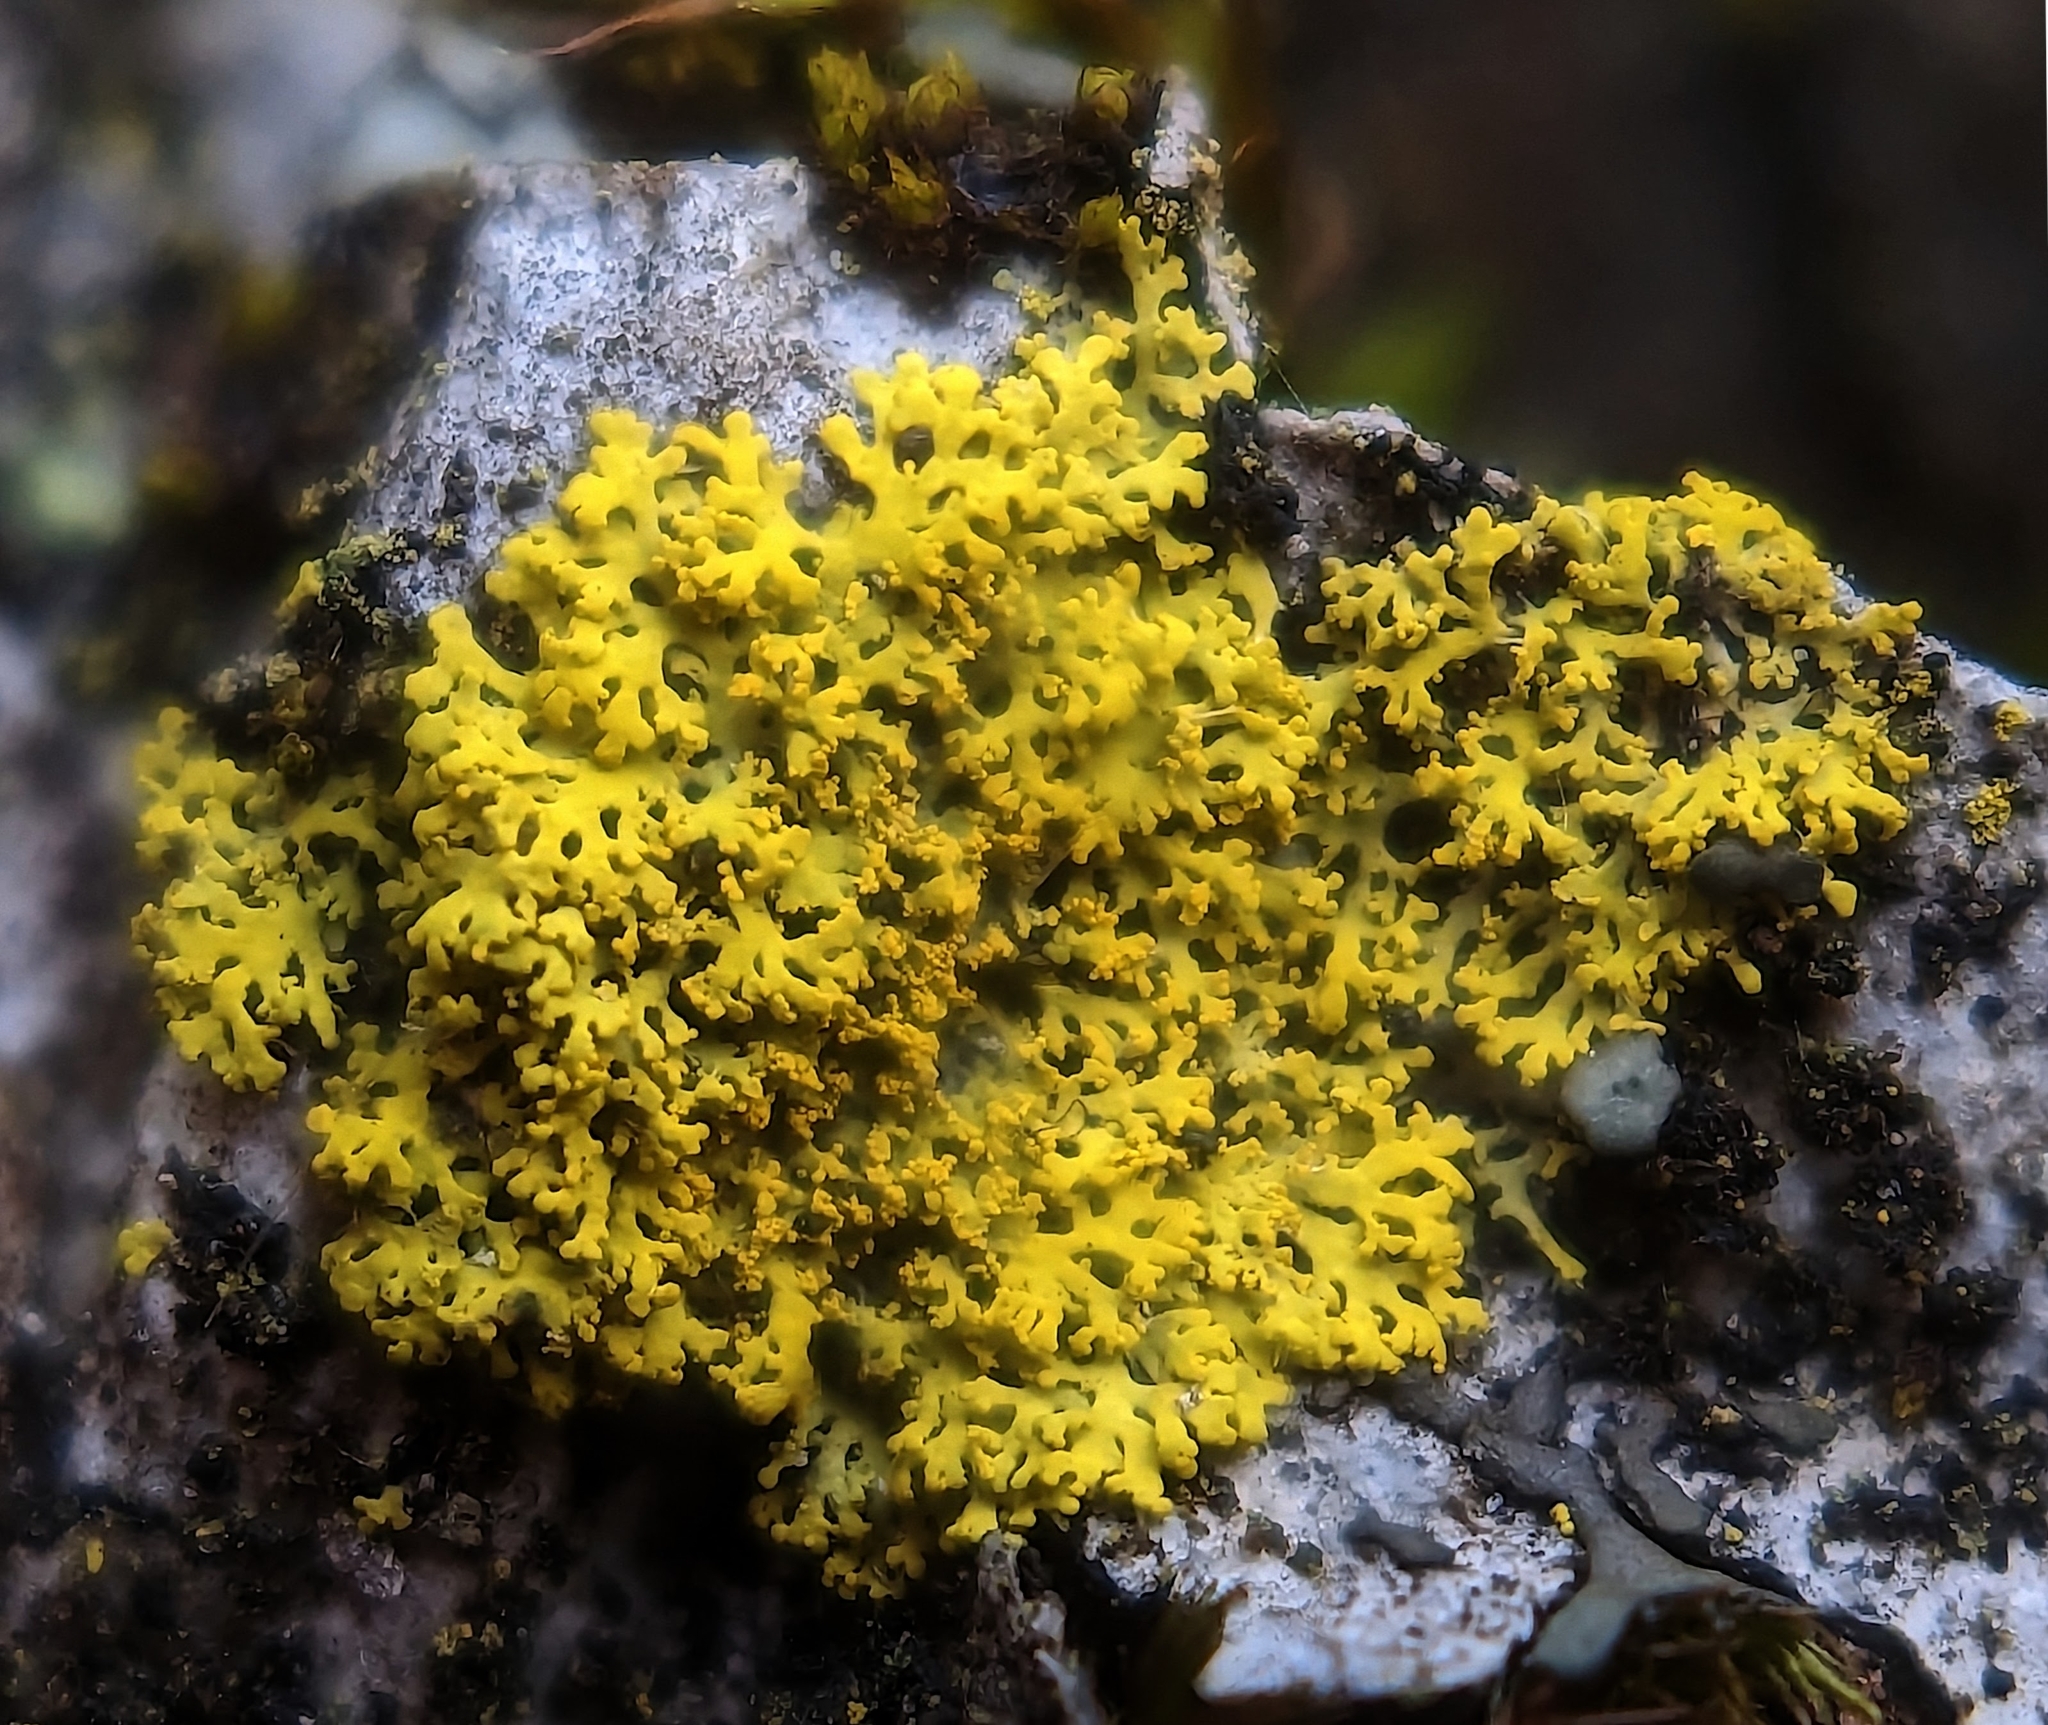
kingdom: Fungi
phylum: Ascomycota
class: Candelariomycetes
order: Candelariales
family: Candelariaceae
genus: Candelaria
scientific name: Candelaria concolor
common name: Candleflame lichen
